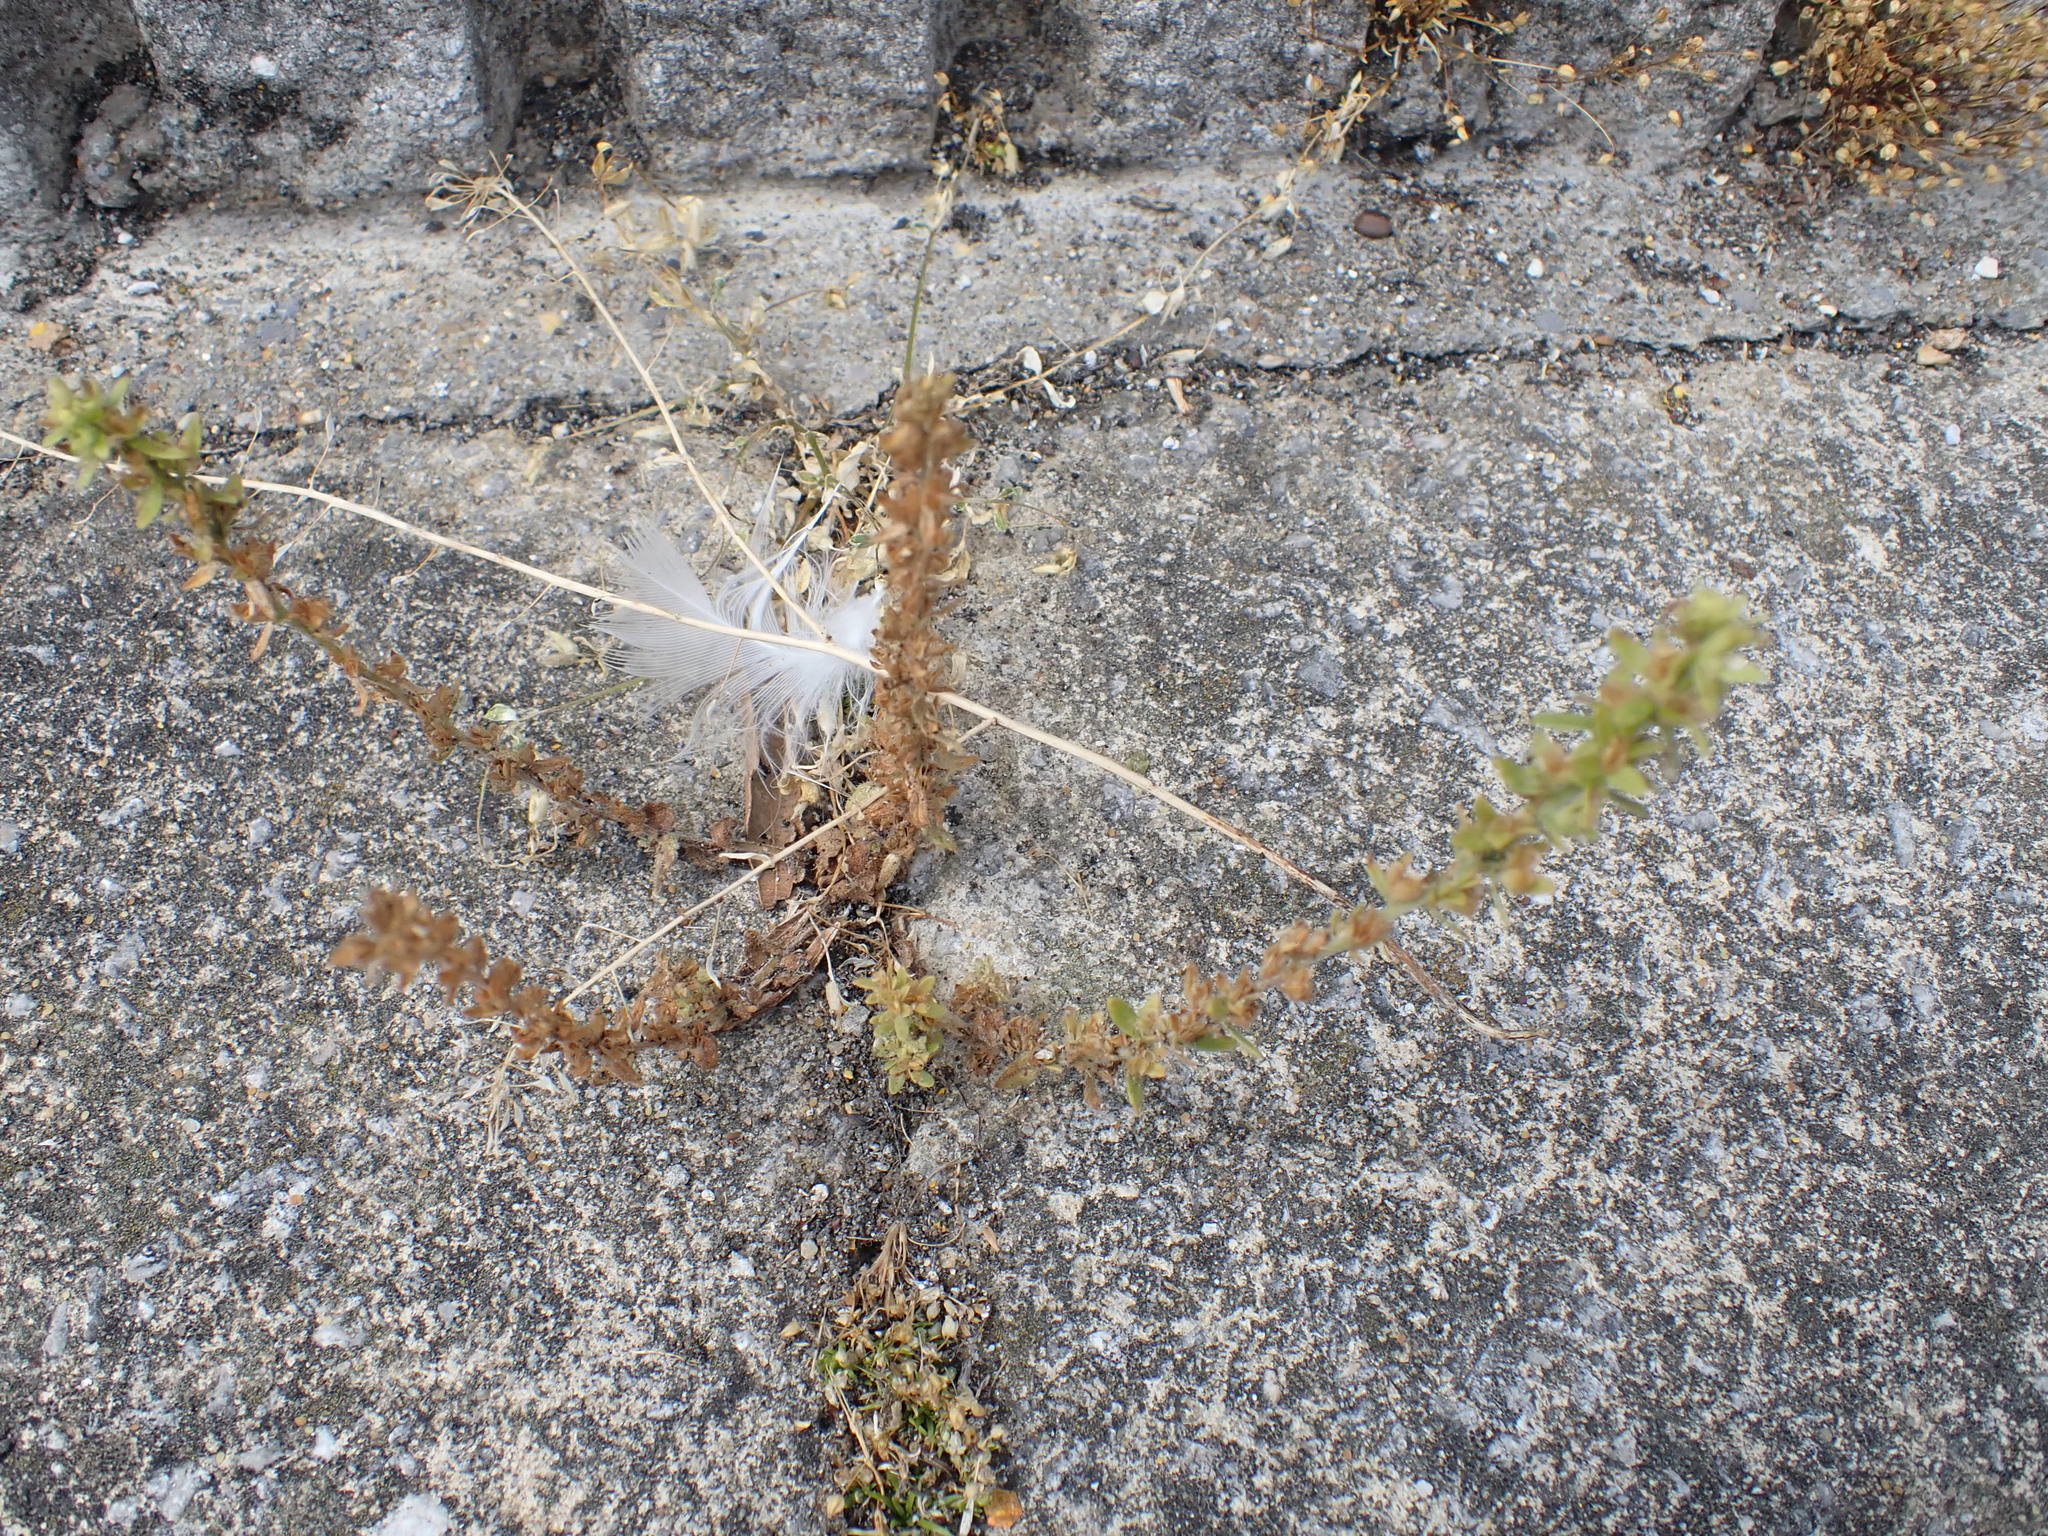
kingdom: Plantae
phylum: Tracheophyta
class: Magnoliopsida
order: Lamiales
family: Plantaginaceae
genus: Veronica
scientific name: Veronica arvensis
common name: Corn speedwell
